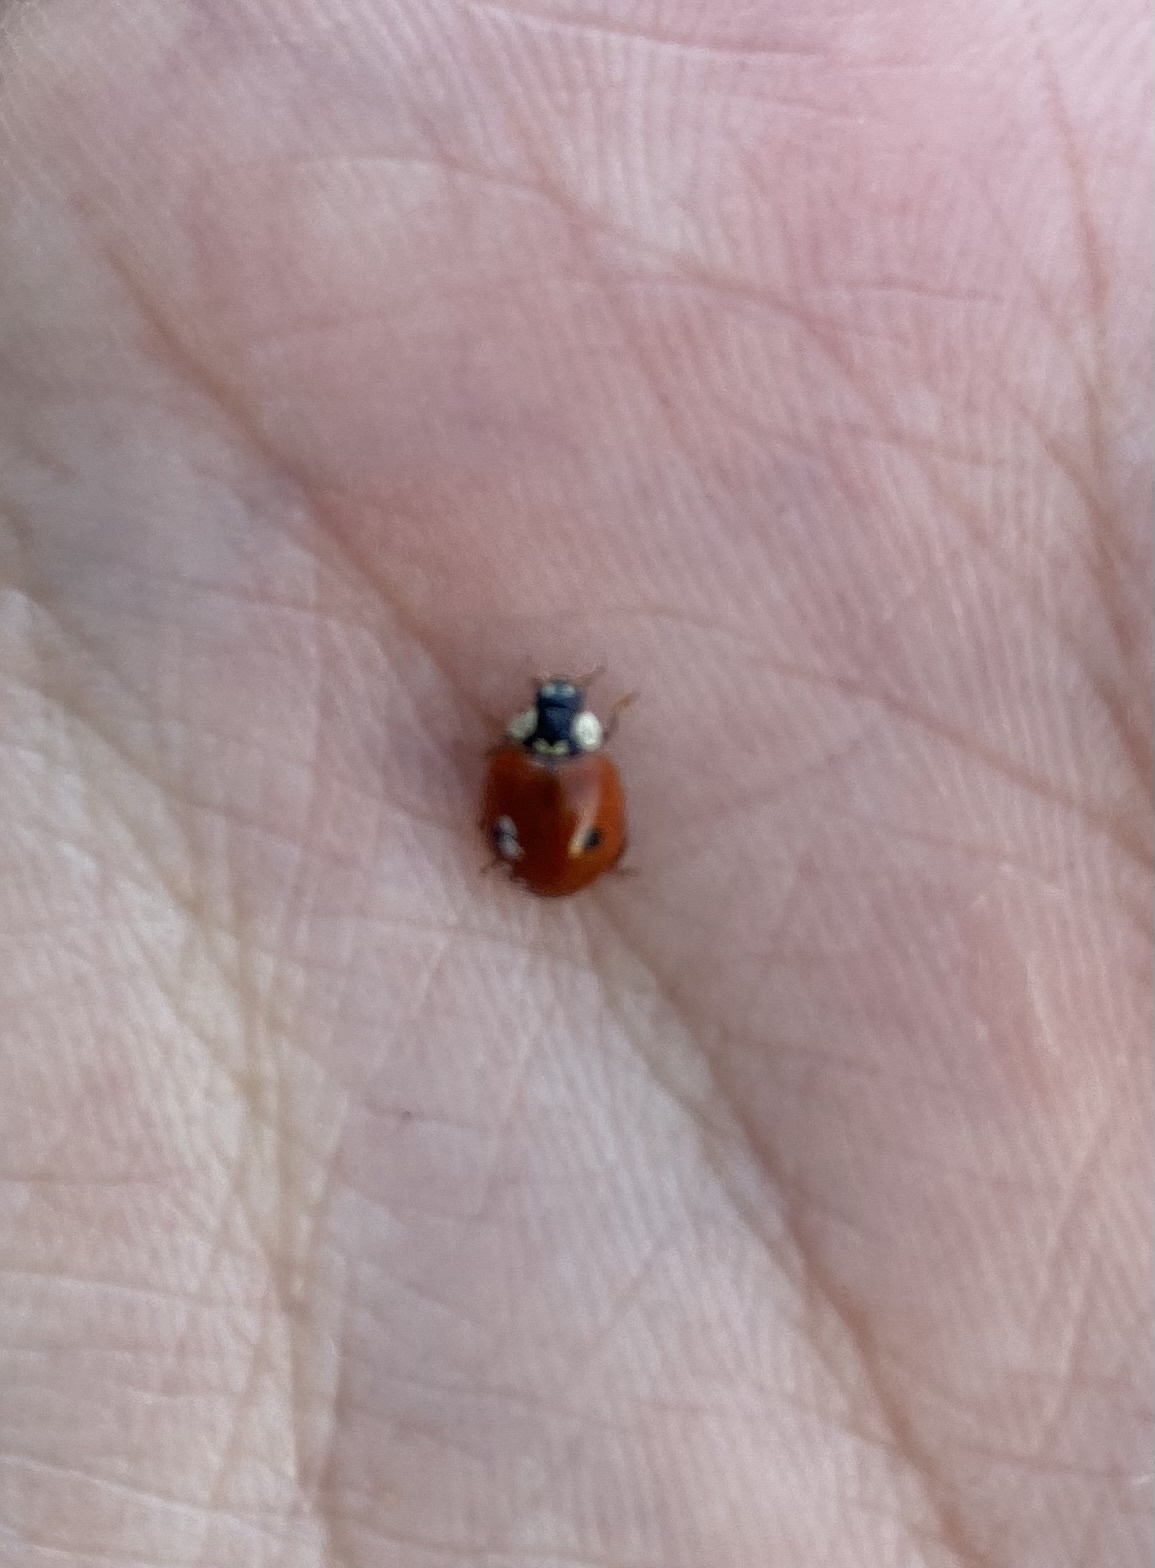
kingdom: Animalia
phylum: Arthropoda
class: Insecta
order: Coleoptera
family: Coccinellidae
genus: Adalia
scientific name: Adalia bipunctata
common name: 2-spot ladybird
